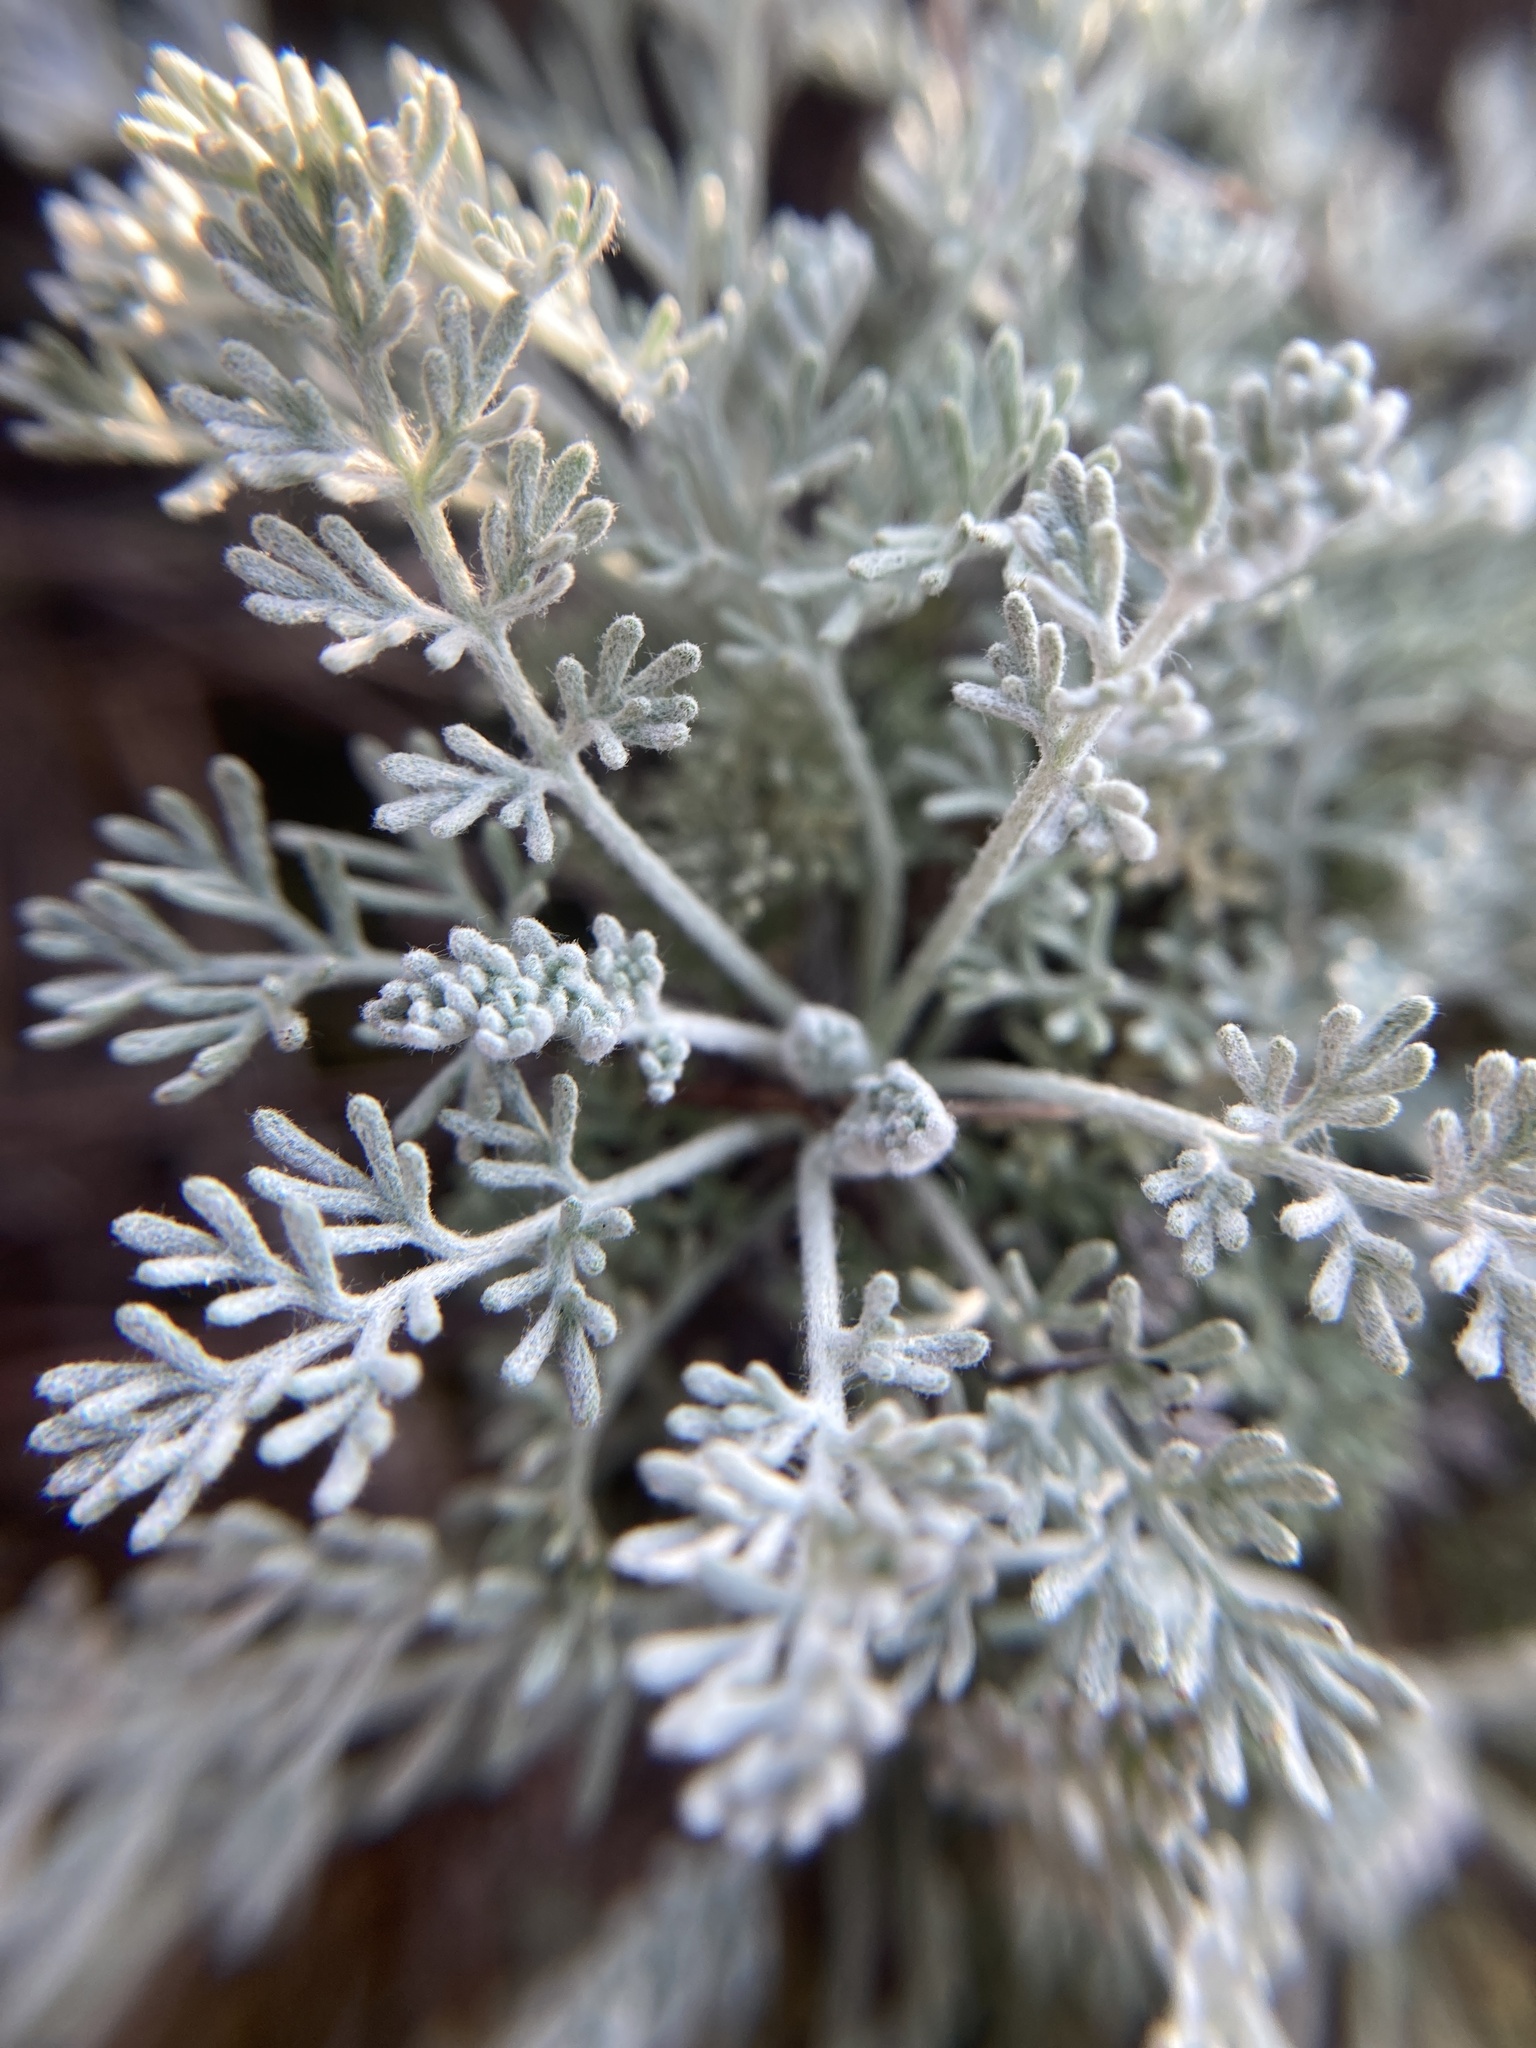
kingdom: Plantae
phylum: Tracheophyta
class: Magnoliopsida
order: Asterales
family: Asteraceae
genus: Artemisia
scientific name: Artemisia santonicum
